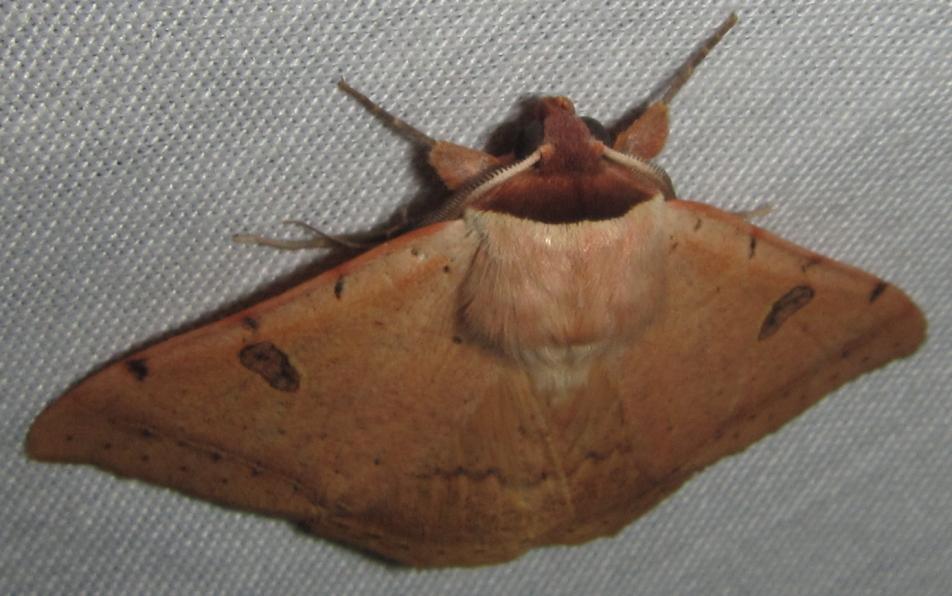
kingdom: Animalia
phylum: Arthropoda
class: Insecta
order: Lepidoptera
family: Erebidae
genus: Ctenusa
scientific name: Ctenusa pallida
